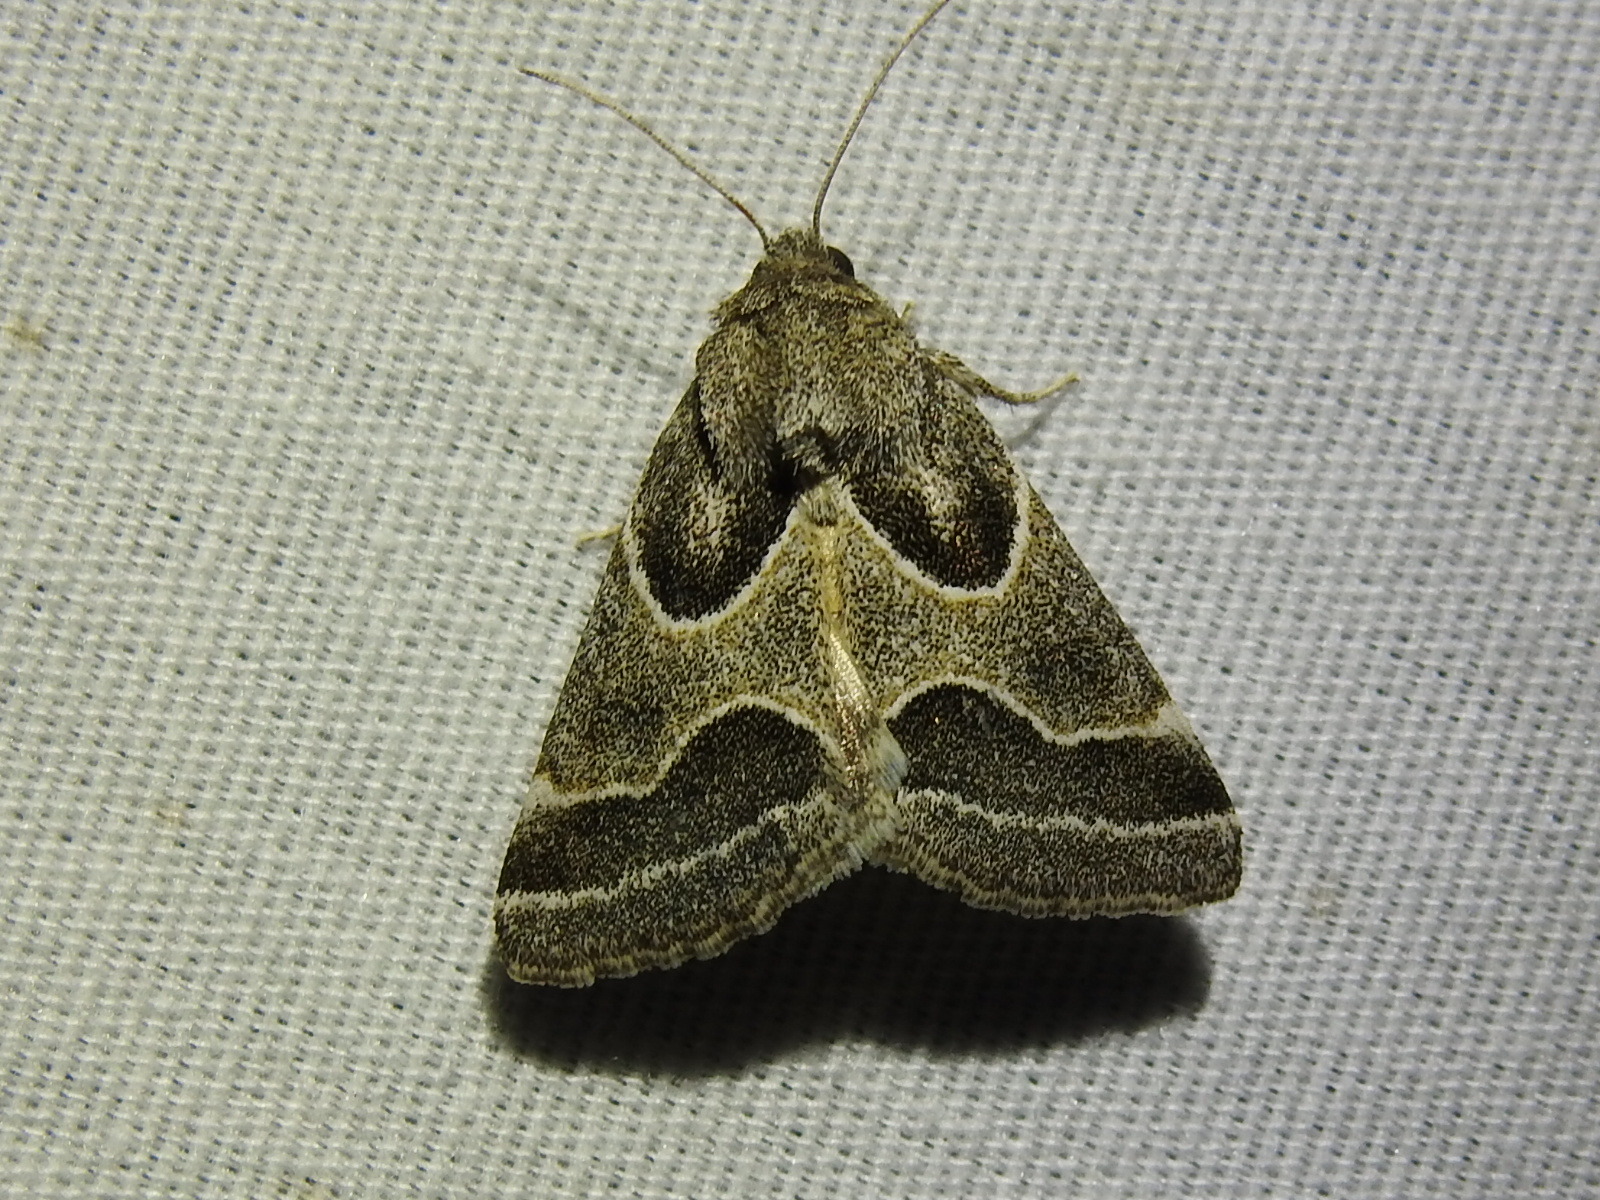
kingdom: Animalia
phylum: Arthropoda
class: Insecta
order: Lepidoptera
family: Noctuidae
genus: Schinia
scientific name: Schinia rivulosa
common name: Scarce meal-moth
